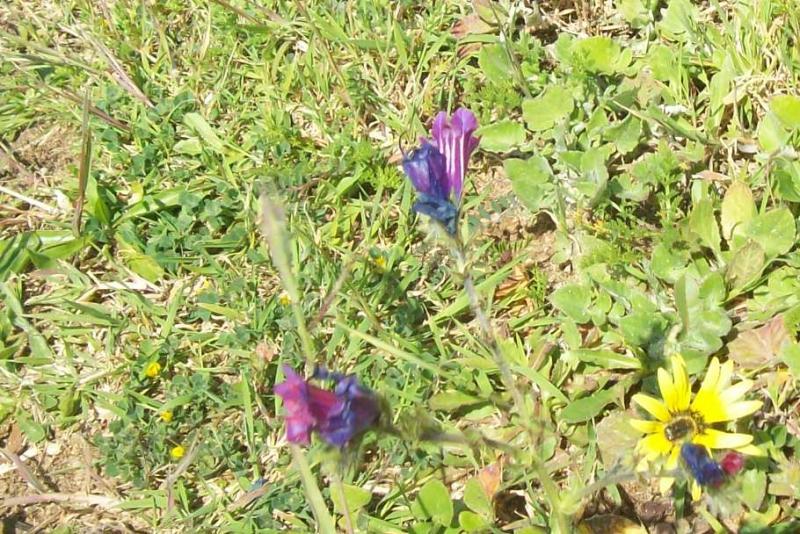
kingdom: Plantae
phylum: Tracheophyta
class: Magnoliopsida
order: Boraginales
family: Boraginaceae
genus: Echium
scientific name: Echium plantagineum
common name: Purple viper's-bugloss
